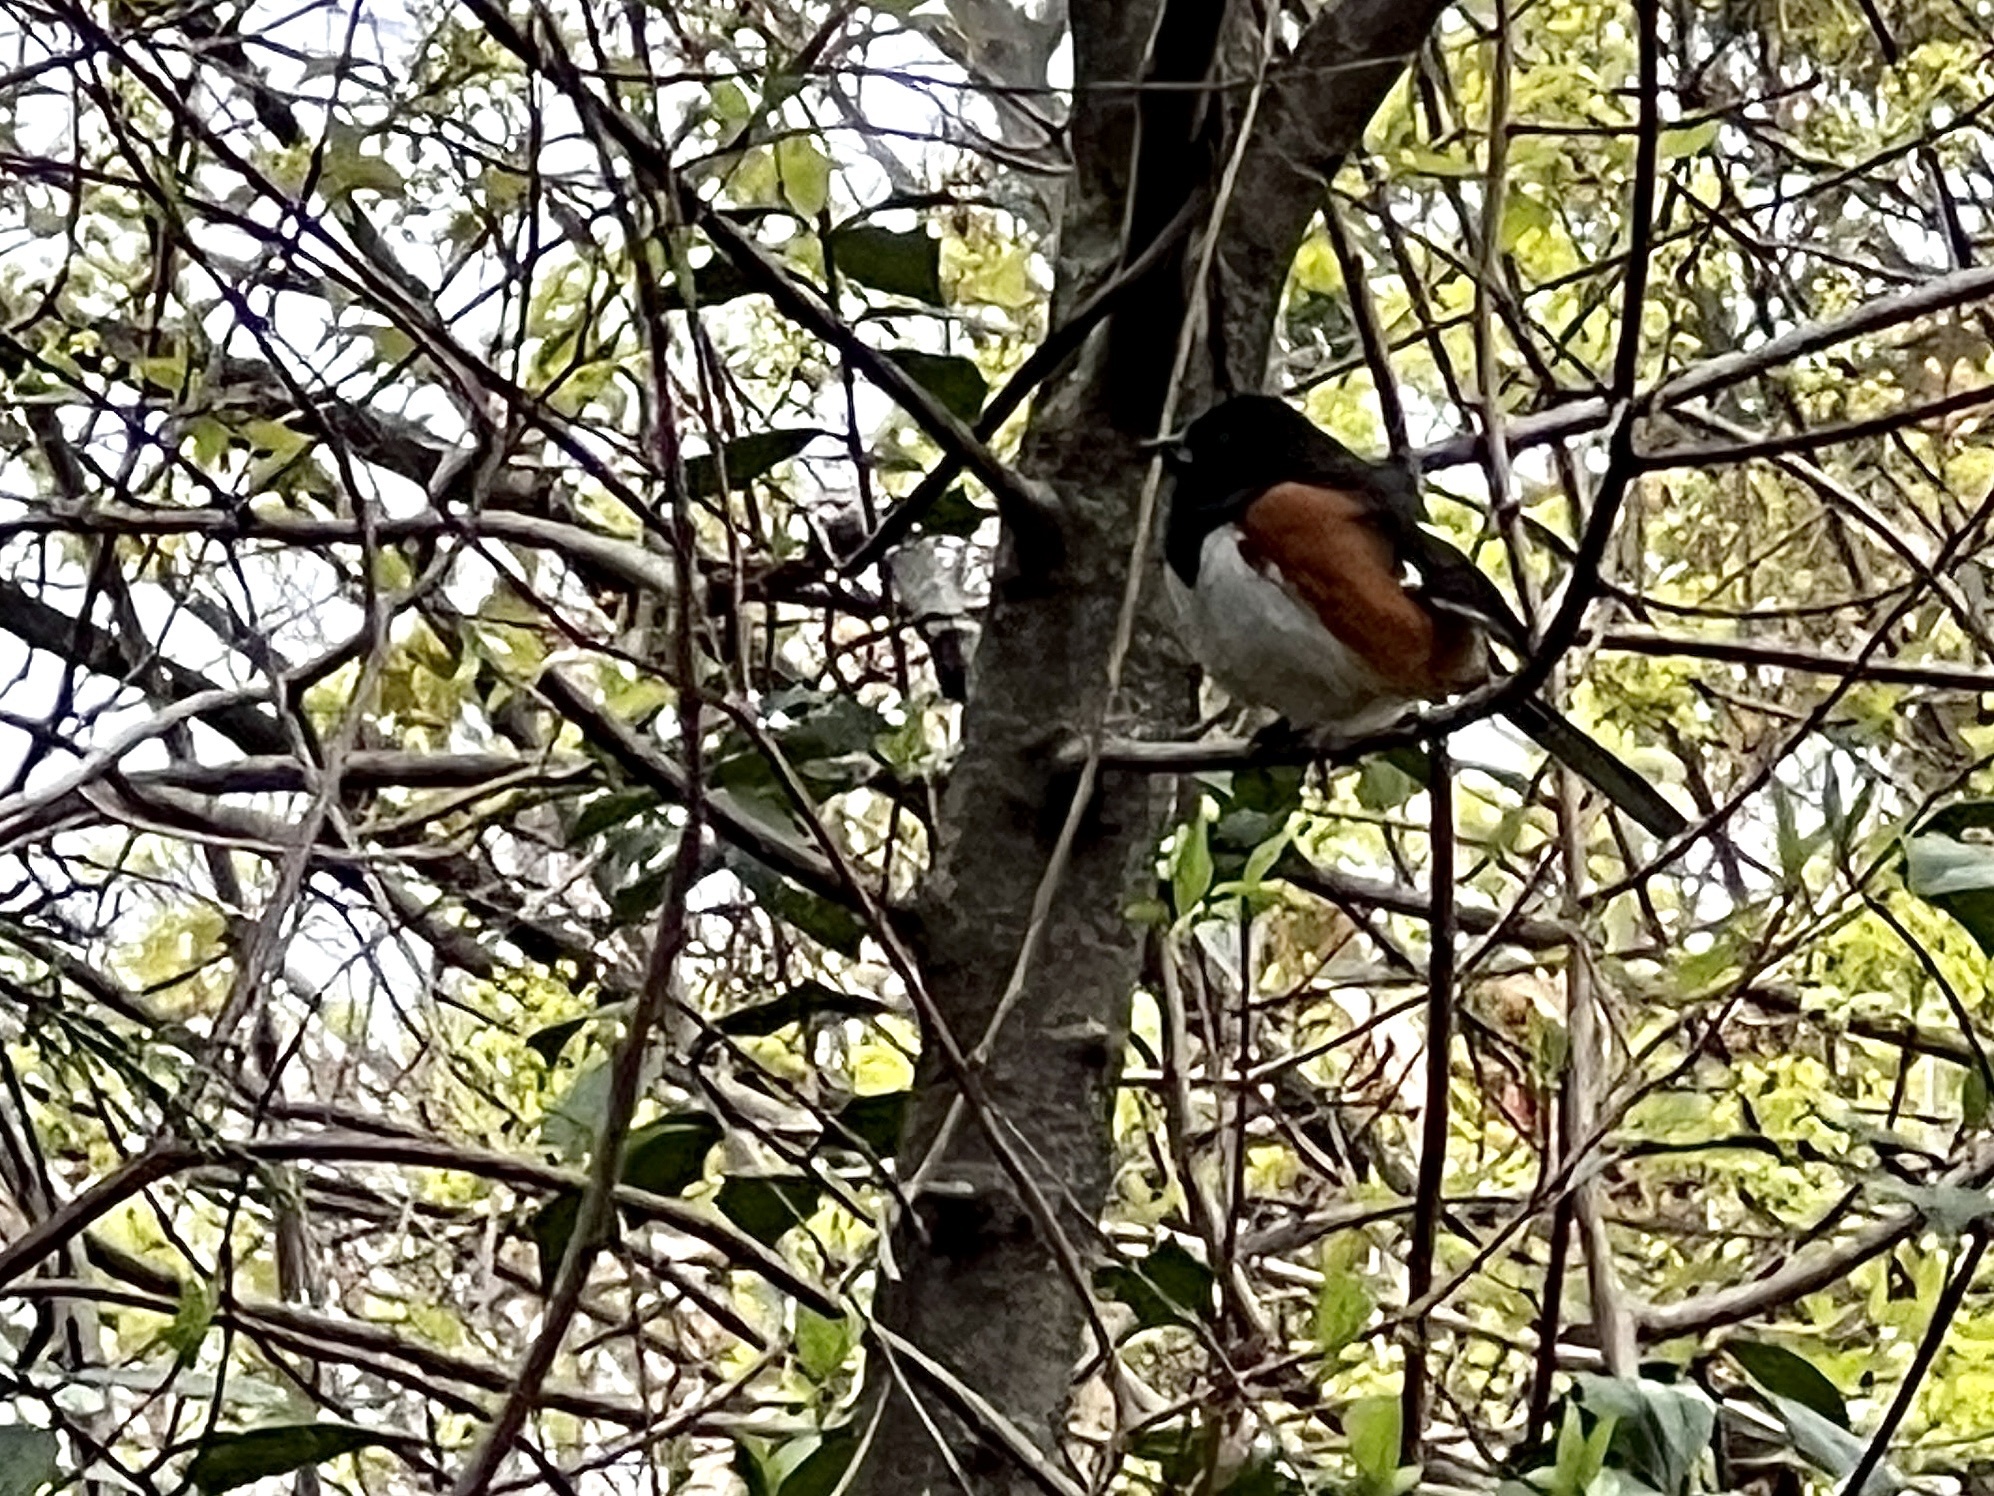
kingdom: Animalia
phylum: Chordata
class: Aves
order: Passeriformes
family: Passerellidae
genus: Pipilo
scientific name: Pipilo erythrophthalmus
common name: Eastern towhee
